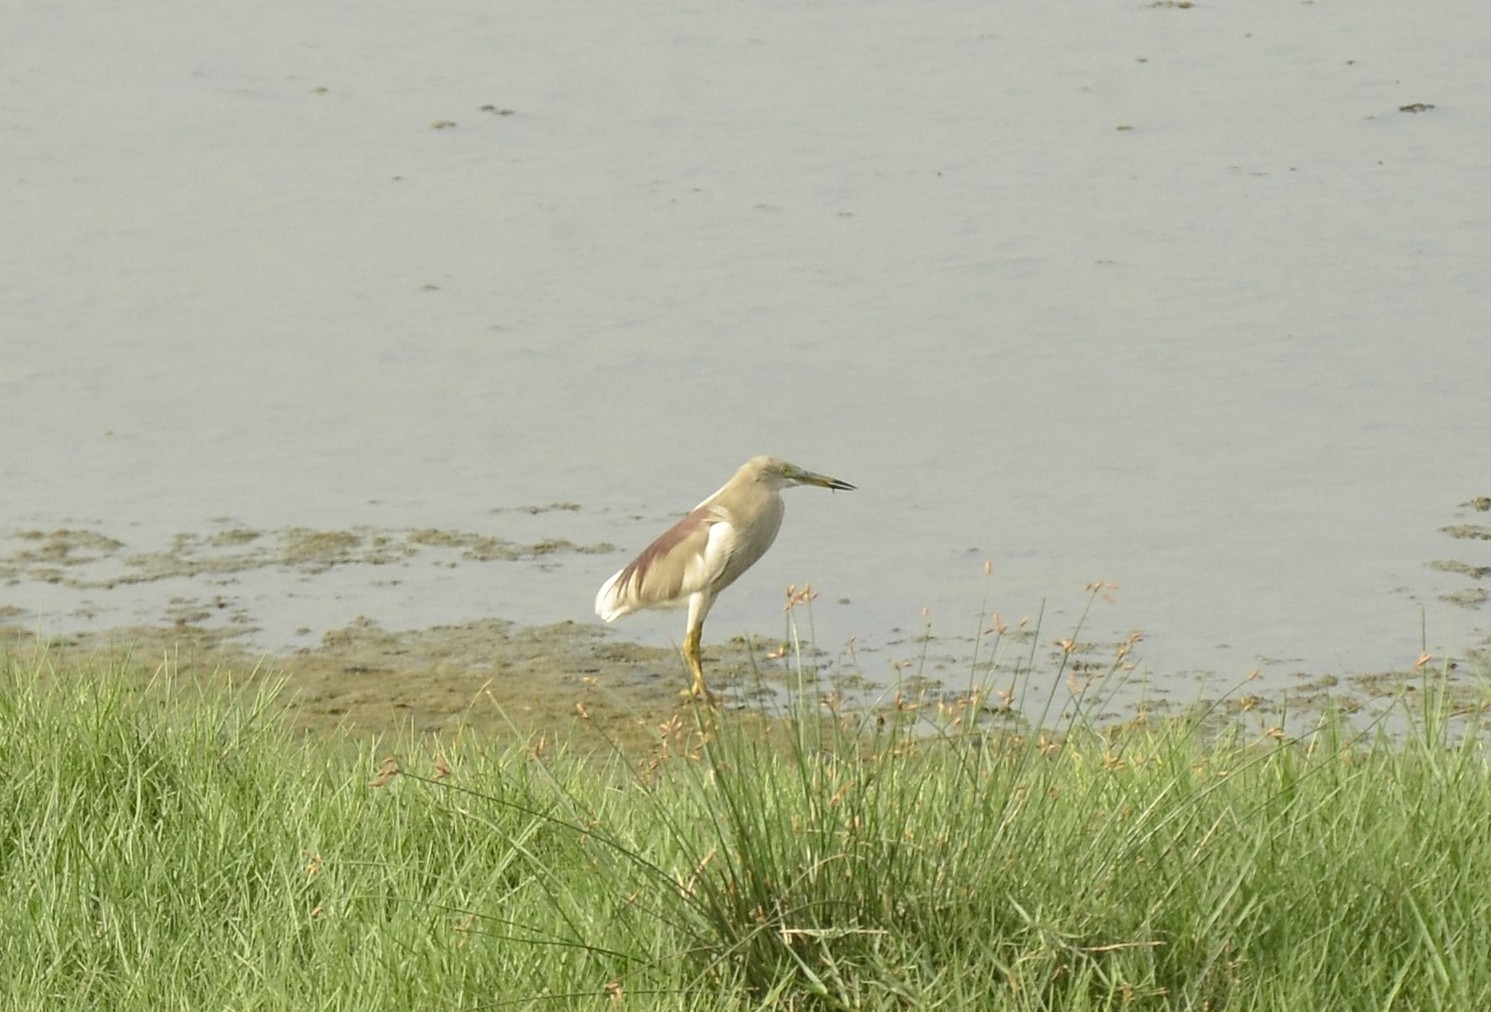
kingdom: Animalia
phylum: Chordata
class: Aves
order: Pelecaniformes
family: Ardeidae
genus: Ardeola
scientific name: Ardeola grayii
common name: Indian pond heron
